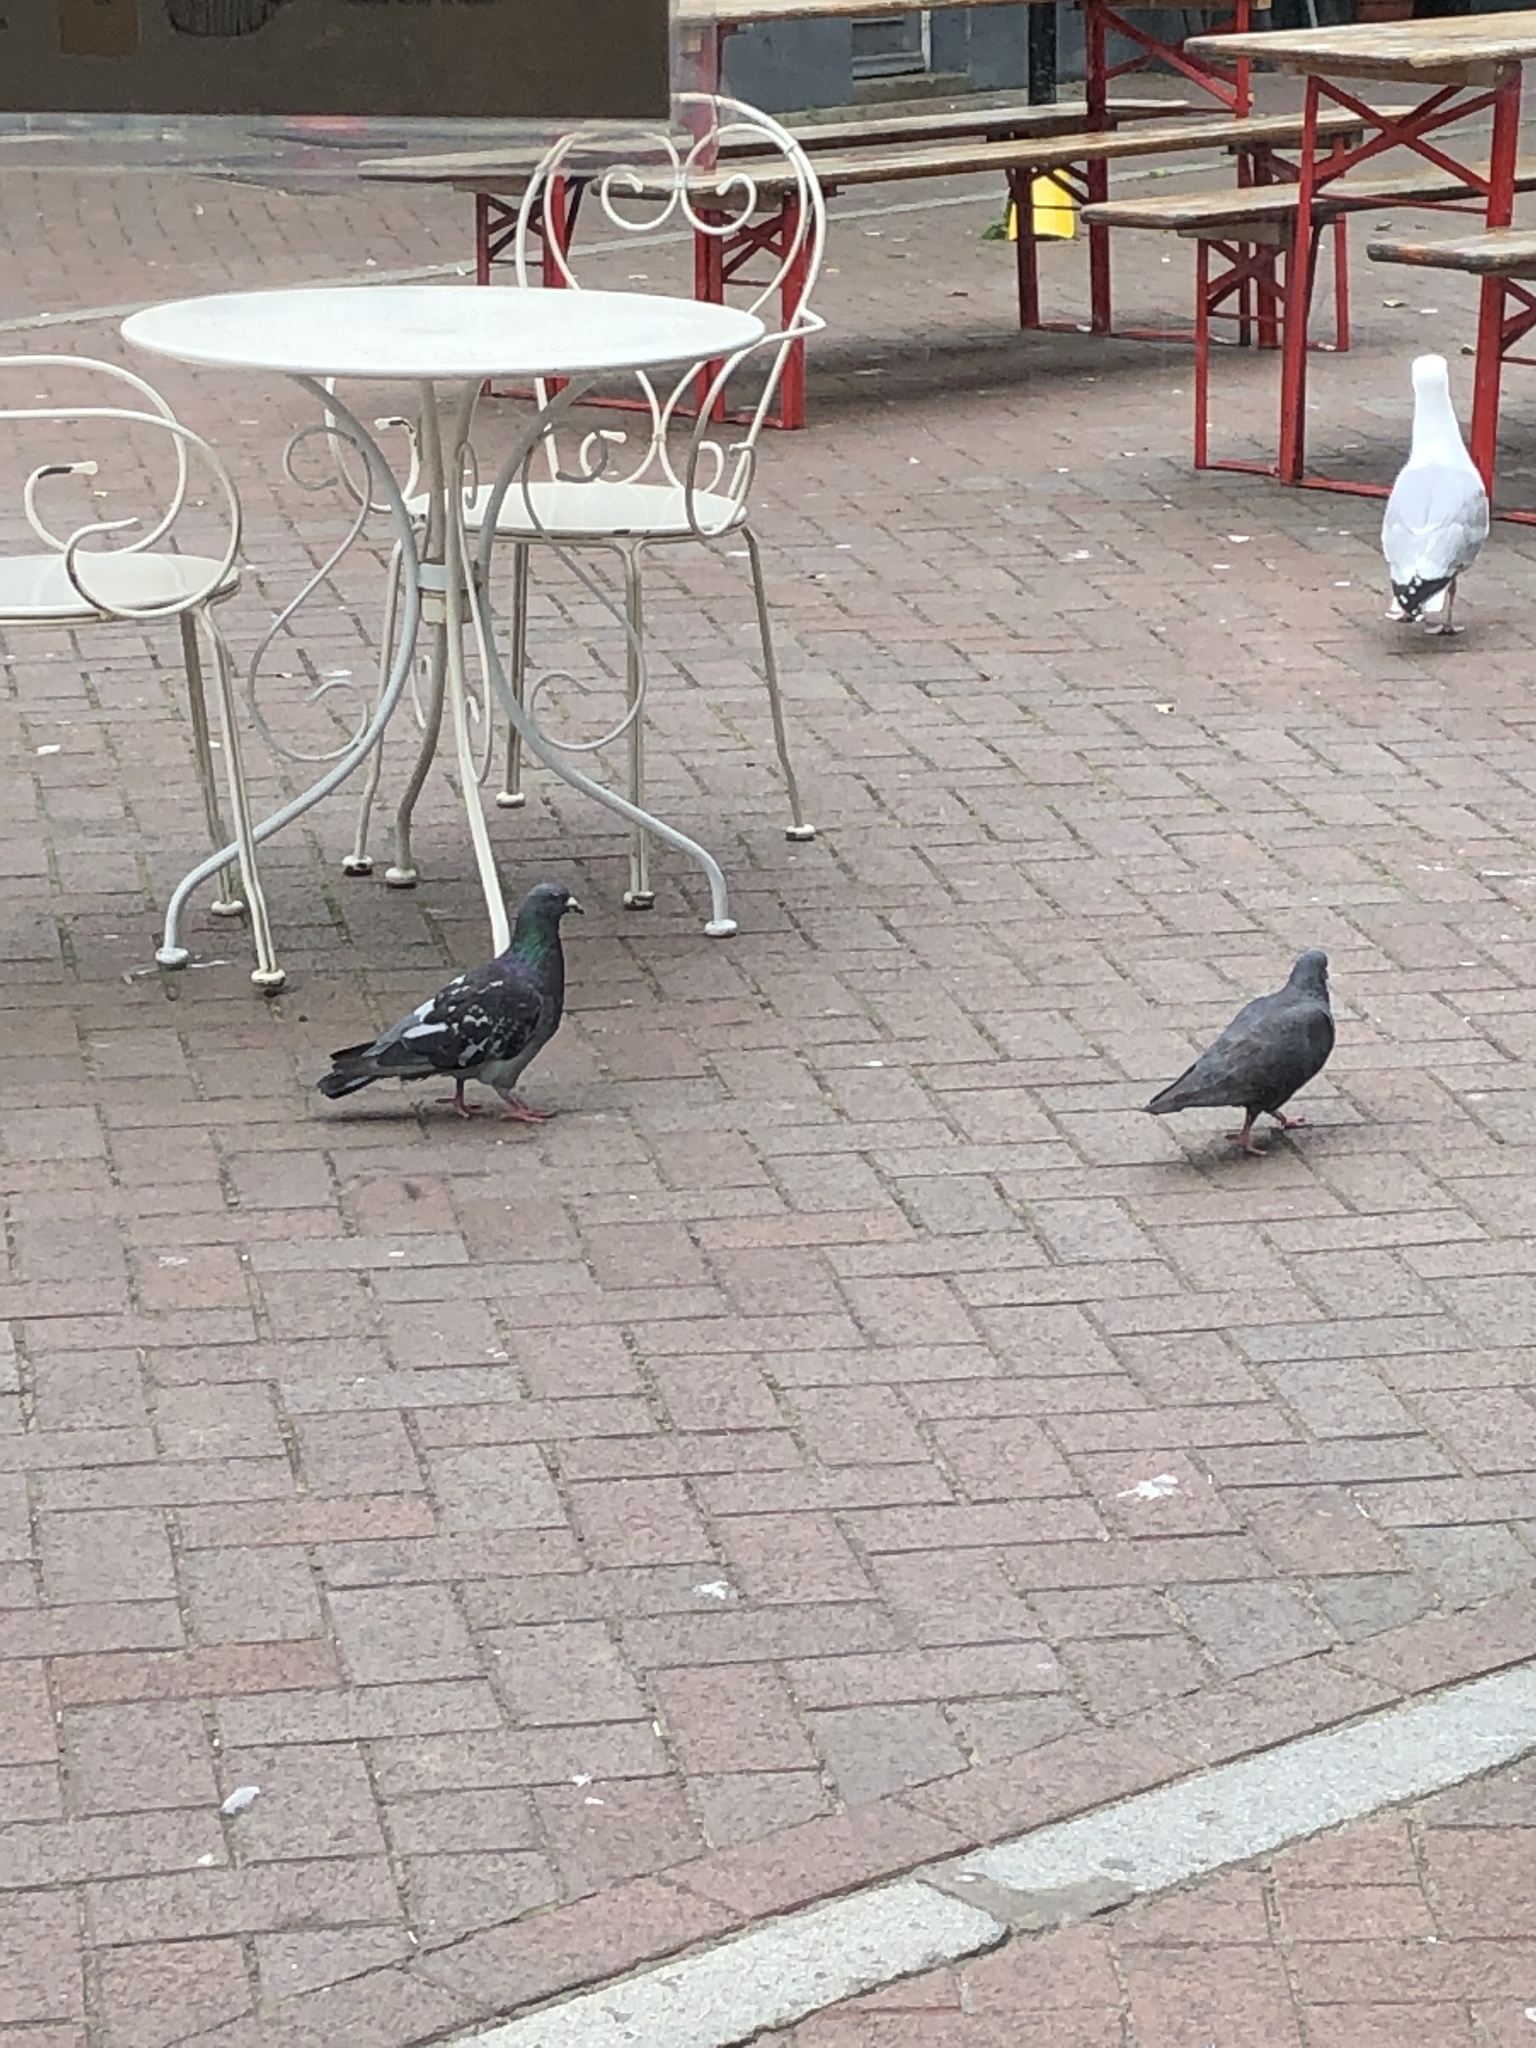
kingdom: Animalia
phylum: Chordata
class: Aves
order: Columbiformes
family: Columbidae
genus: Columba
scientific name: Columba livia
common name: Rock pigeon
